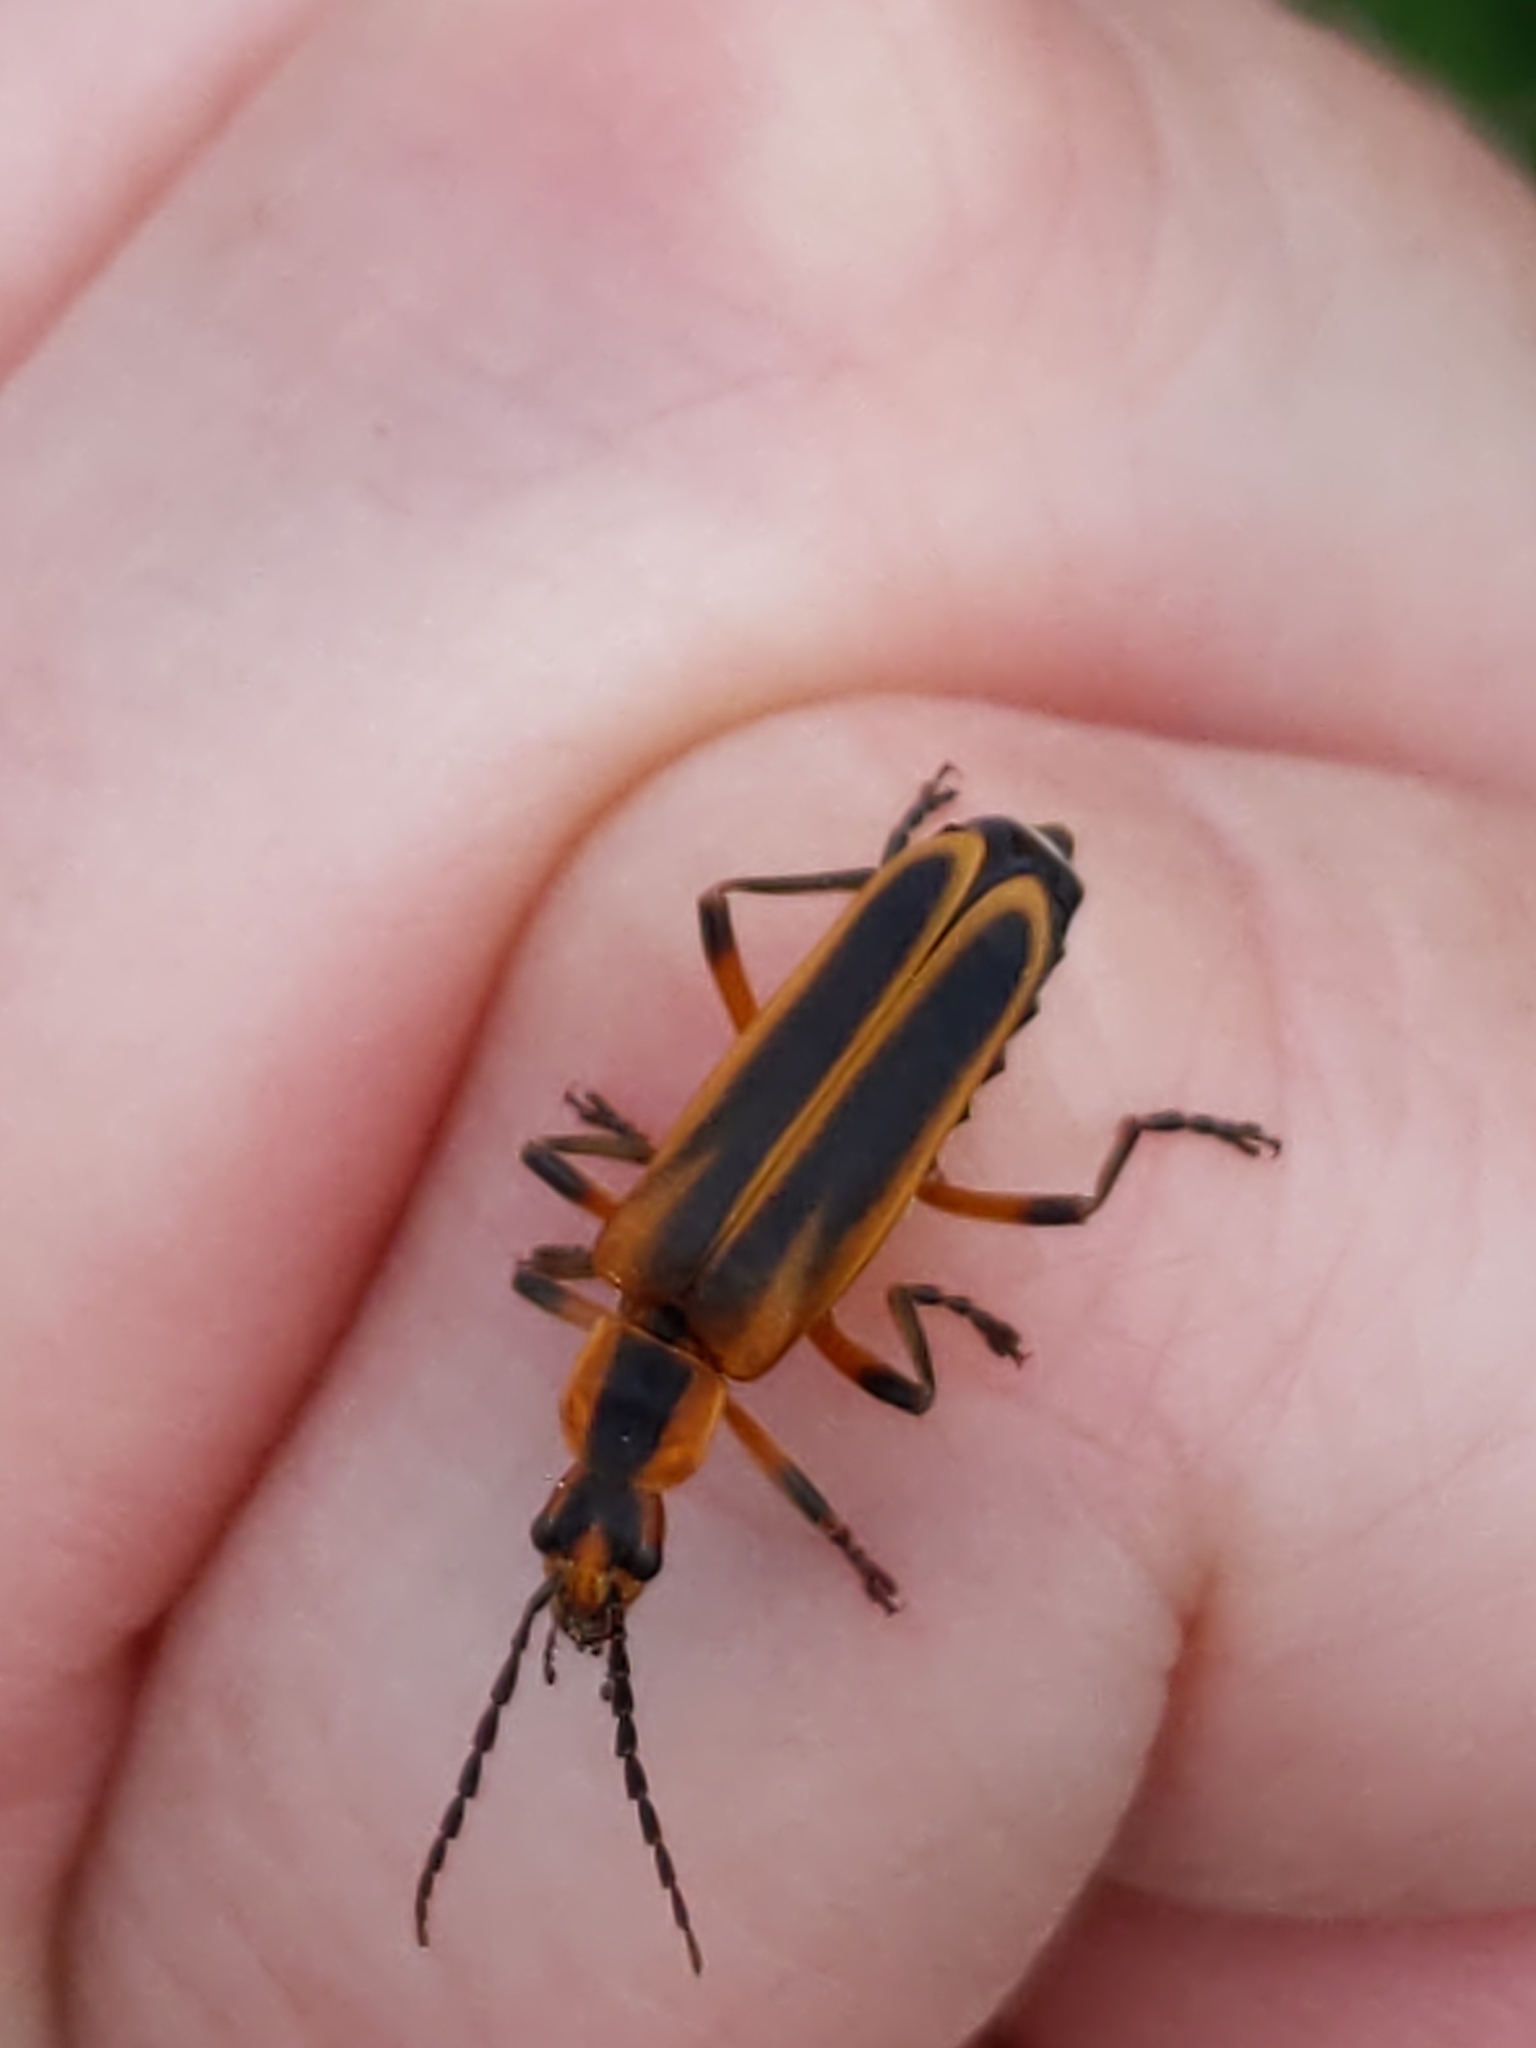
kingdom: Animalia
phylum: Arthropoda
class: Insecta
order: Coleoptera
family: Cantharidae
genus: Chauliognathus
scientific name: Chauliognathus marginatus
